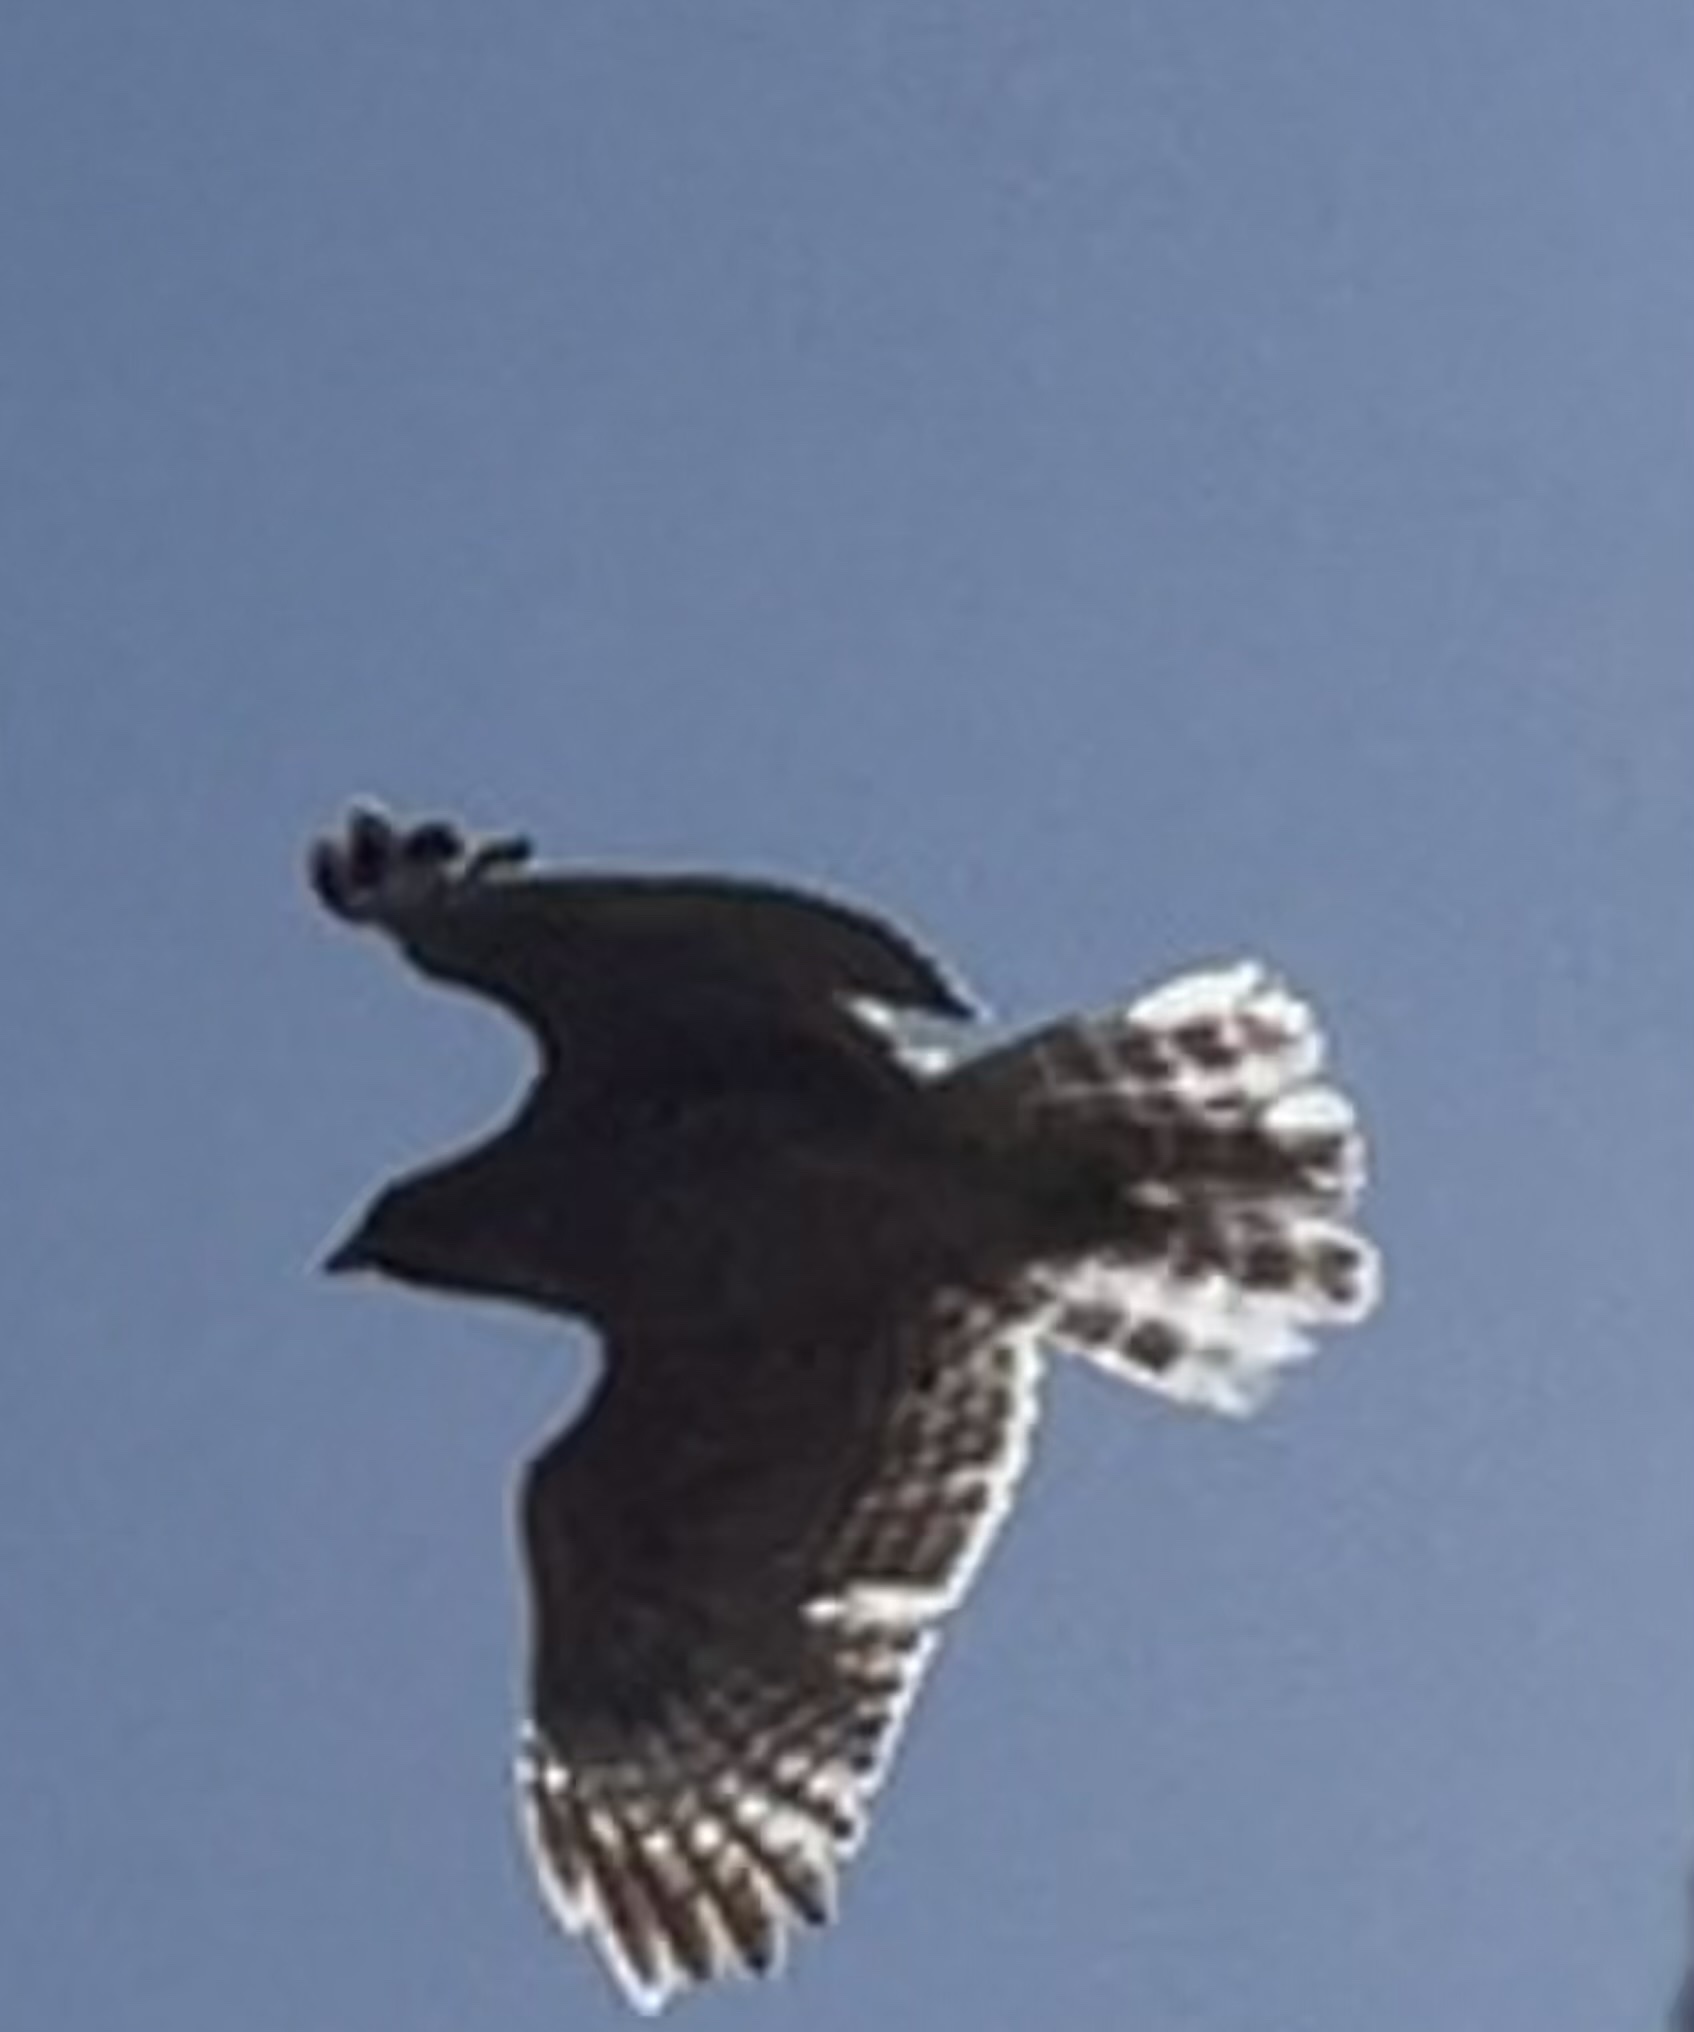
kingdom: Animalia
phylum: Chordata
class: Aves
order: Accipitriformes
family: Accipitridae
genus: Buteo
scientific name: Buteo lineatus
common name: Red-shouldered hawk
